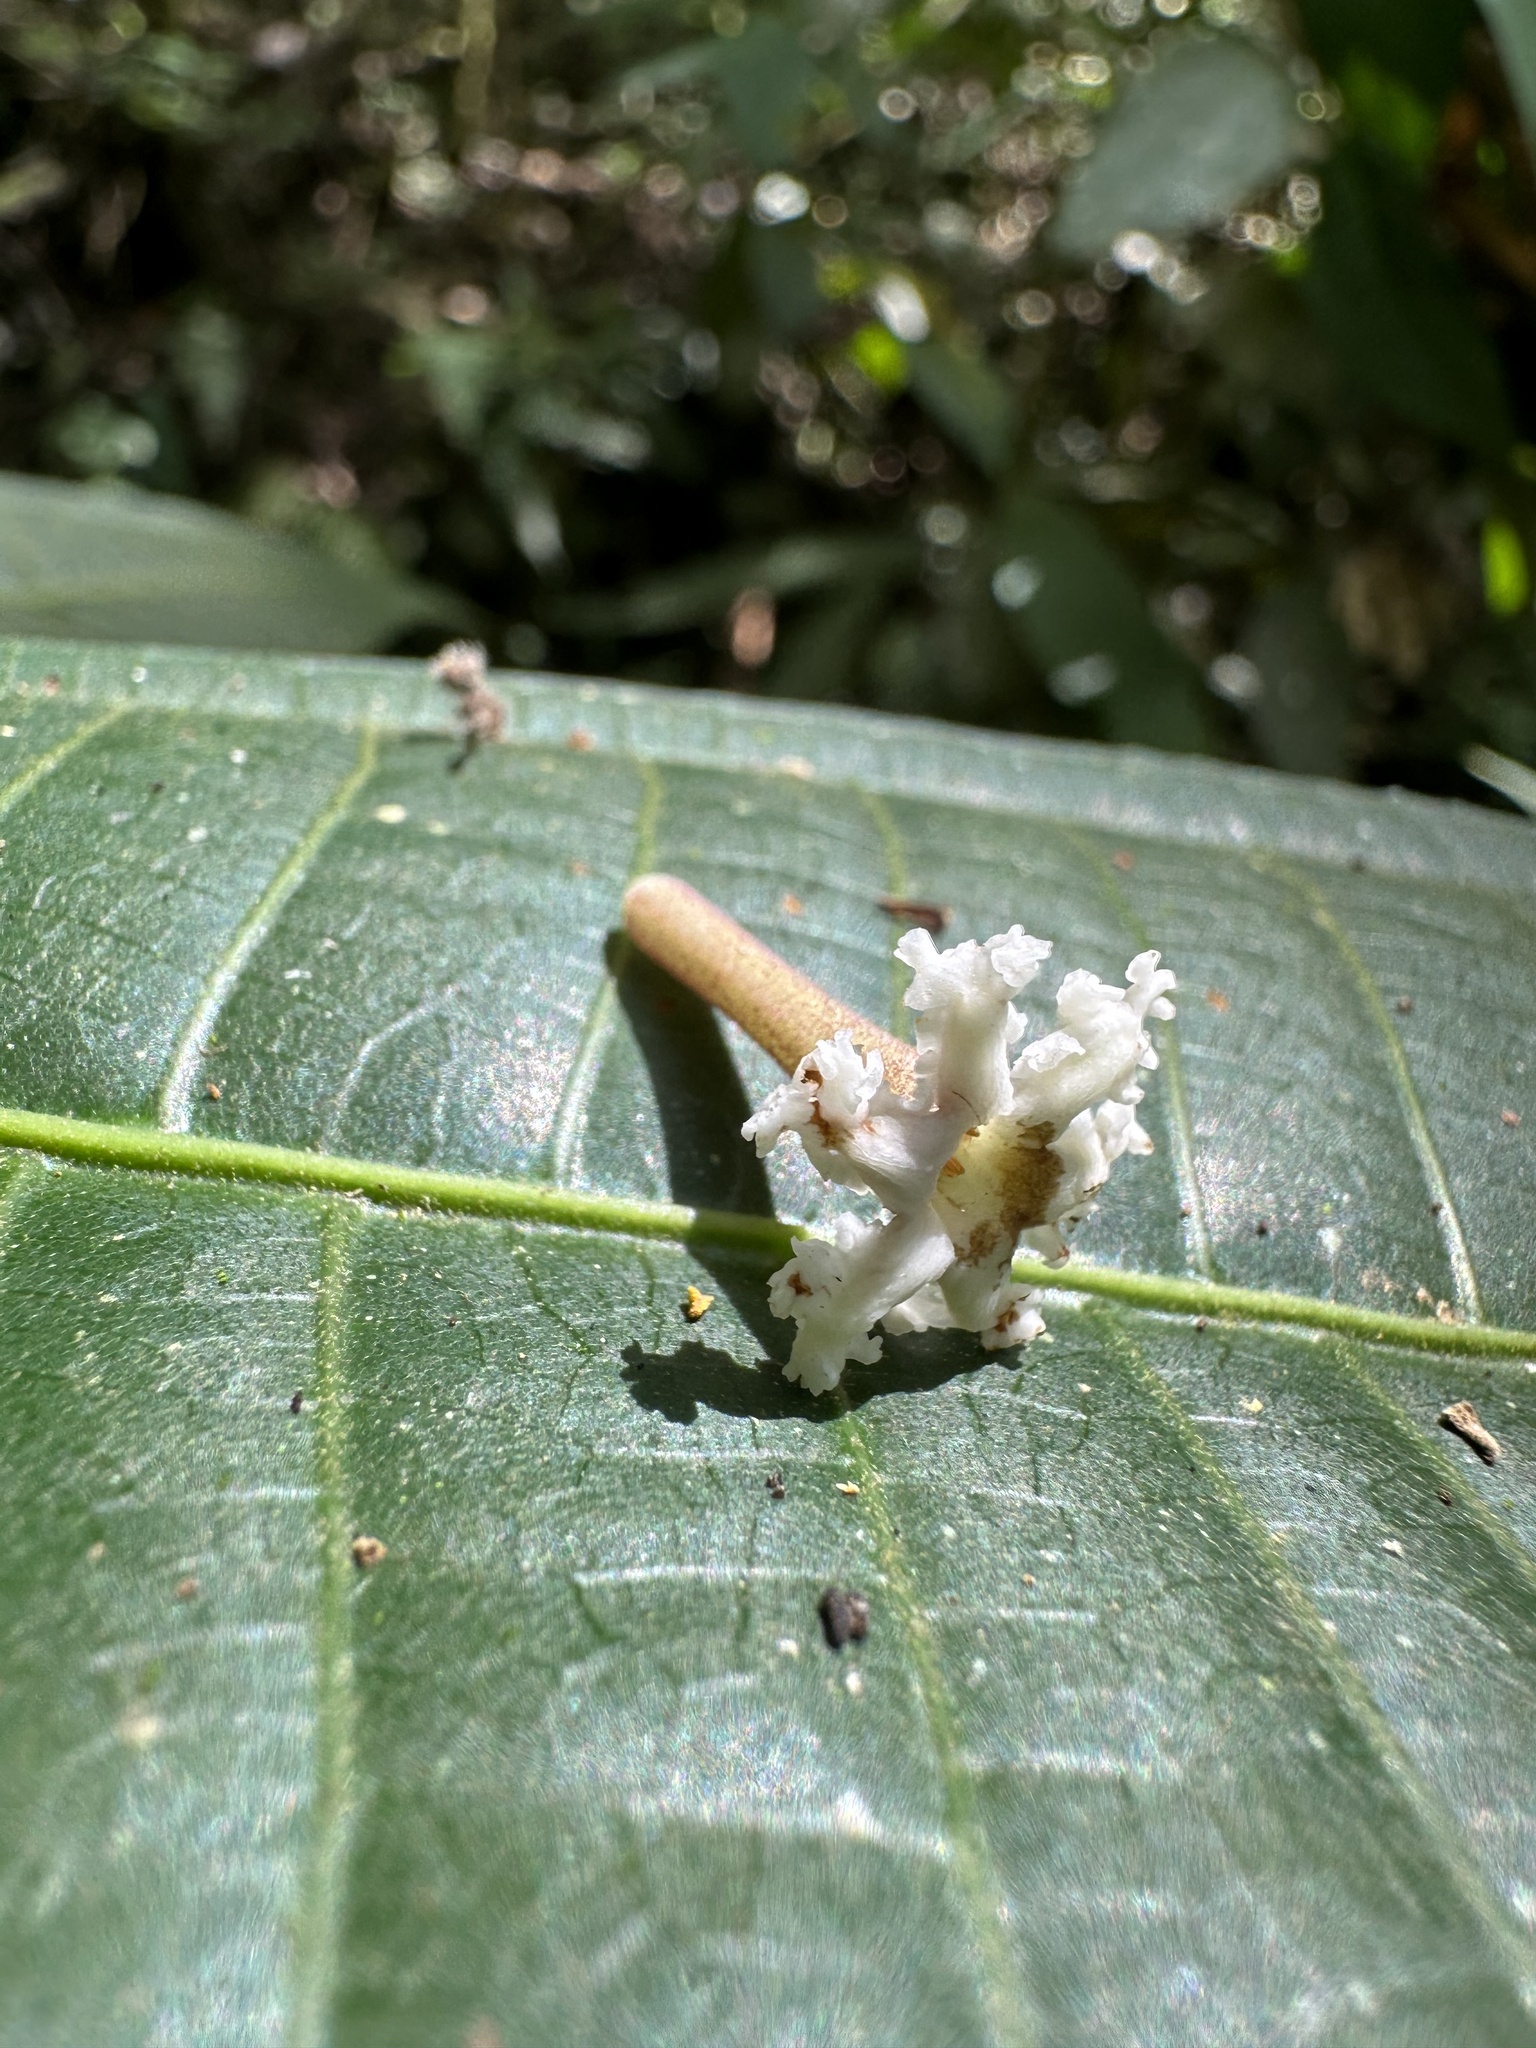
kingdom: Plantae
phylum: Tracheophyta
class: Magnoliopsida
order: Gentianales
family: Rubiaceae
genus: Guettarda
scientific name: Guettarda dependens
